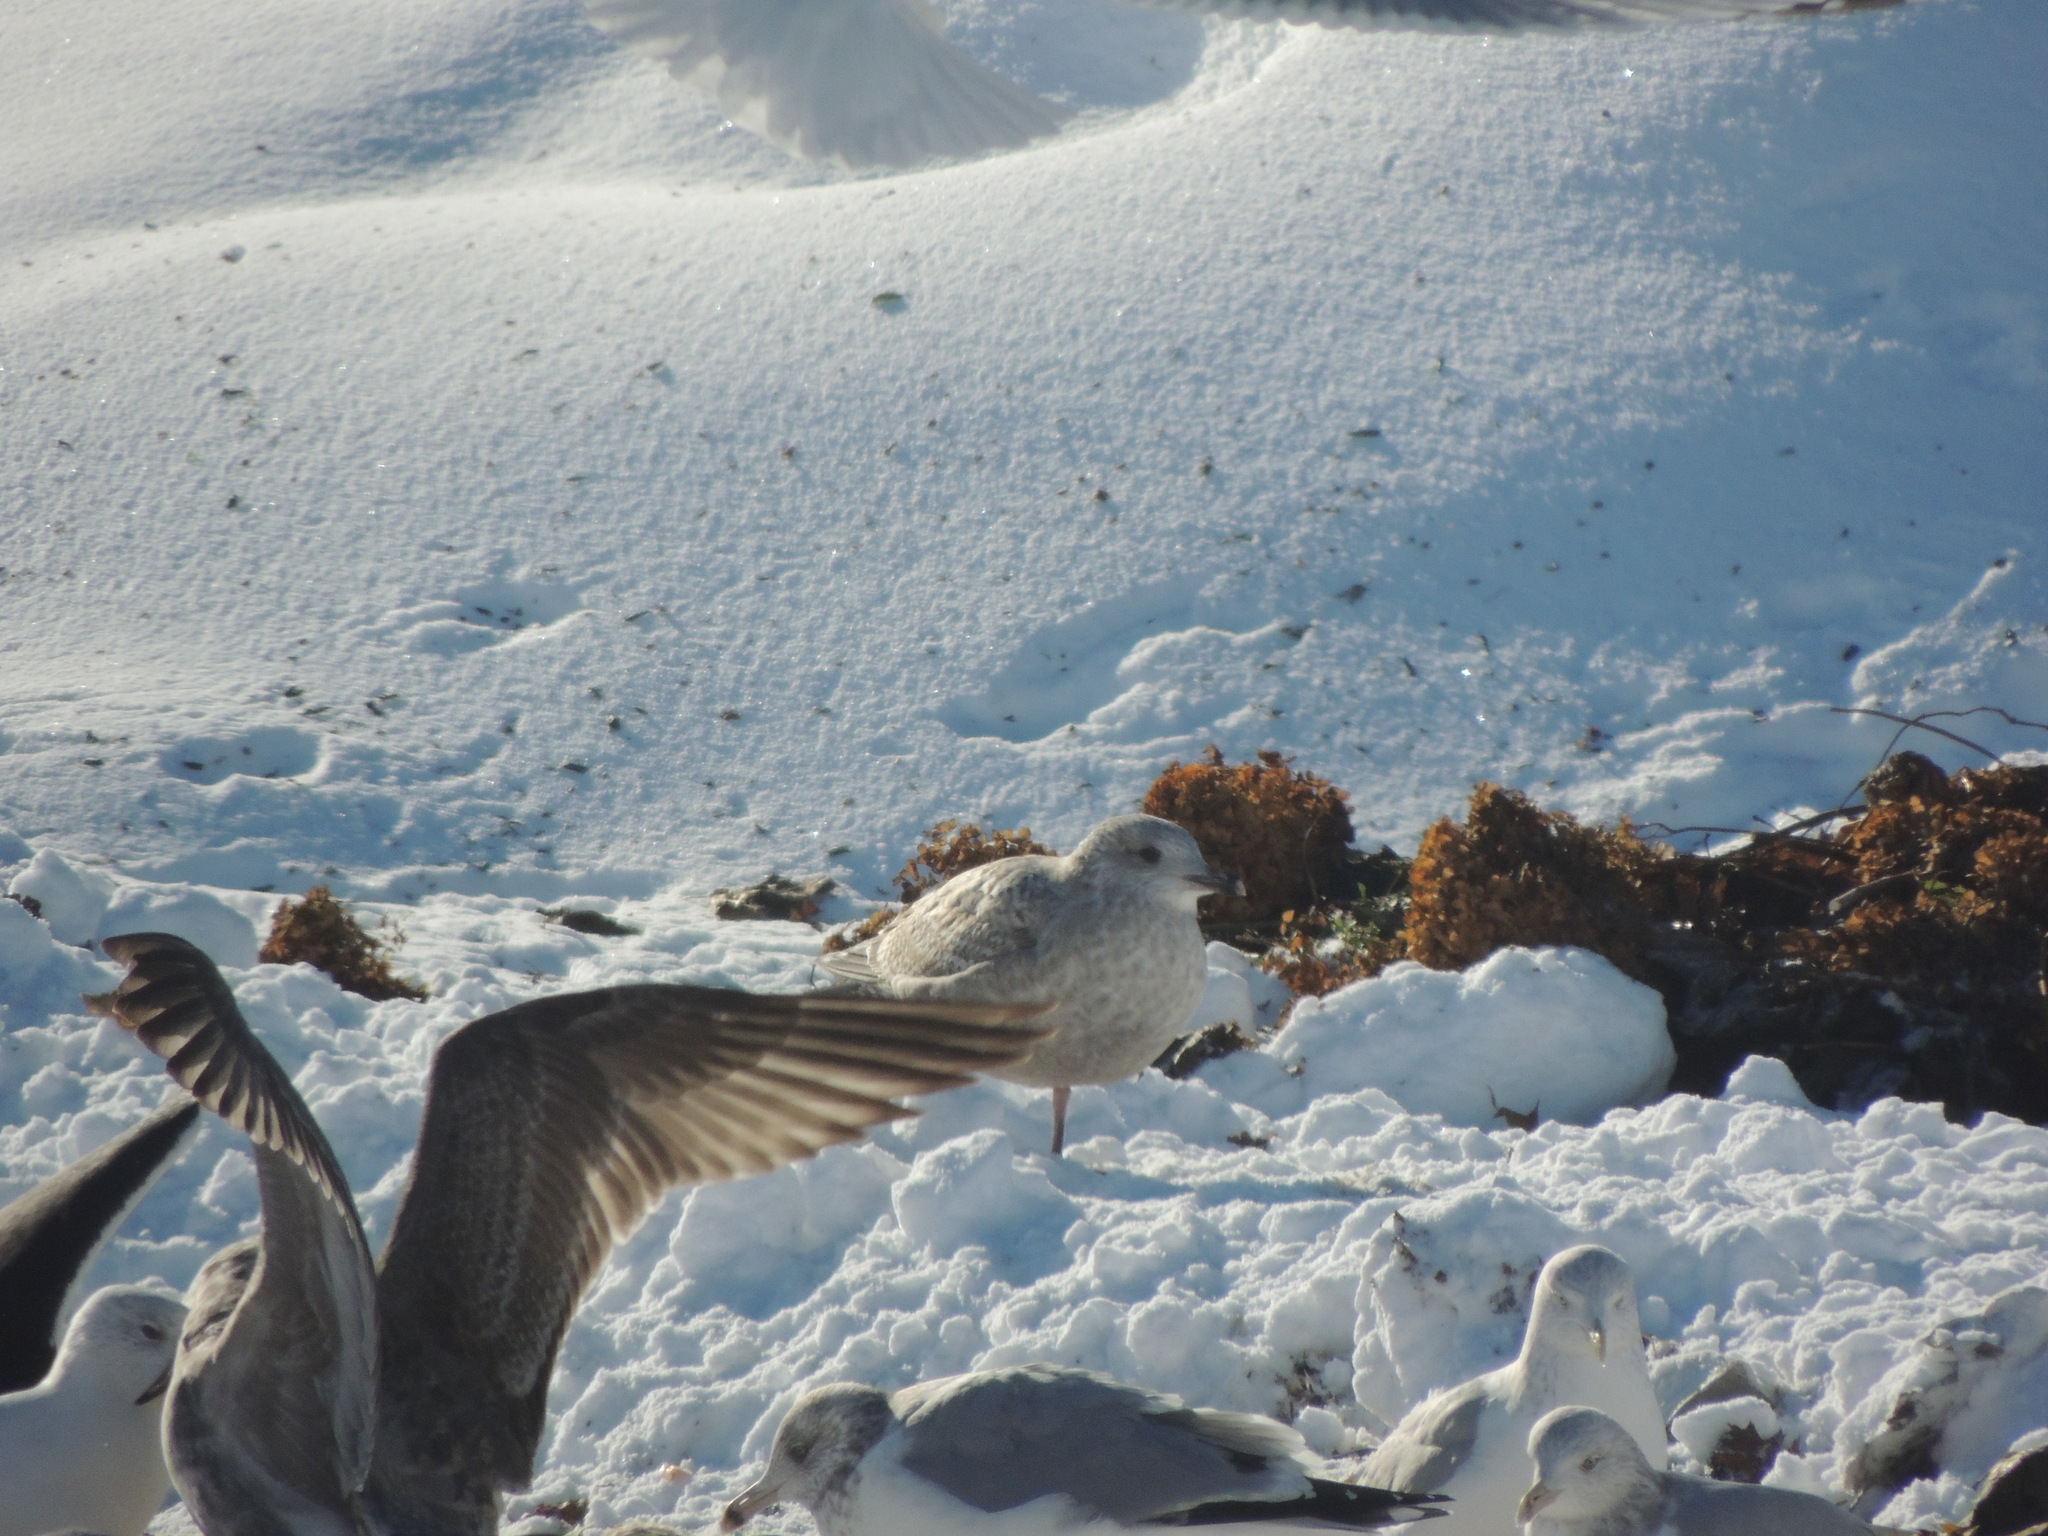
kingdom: Animalia
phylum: Chordata
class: Aves
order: Charadriiformes
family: Laridae
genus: Larus
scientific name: Larus glaucoides
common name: Iceland gull
